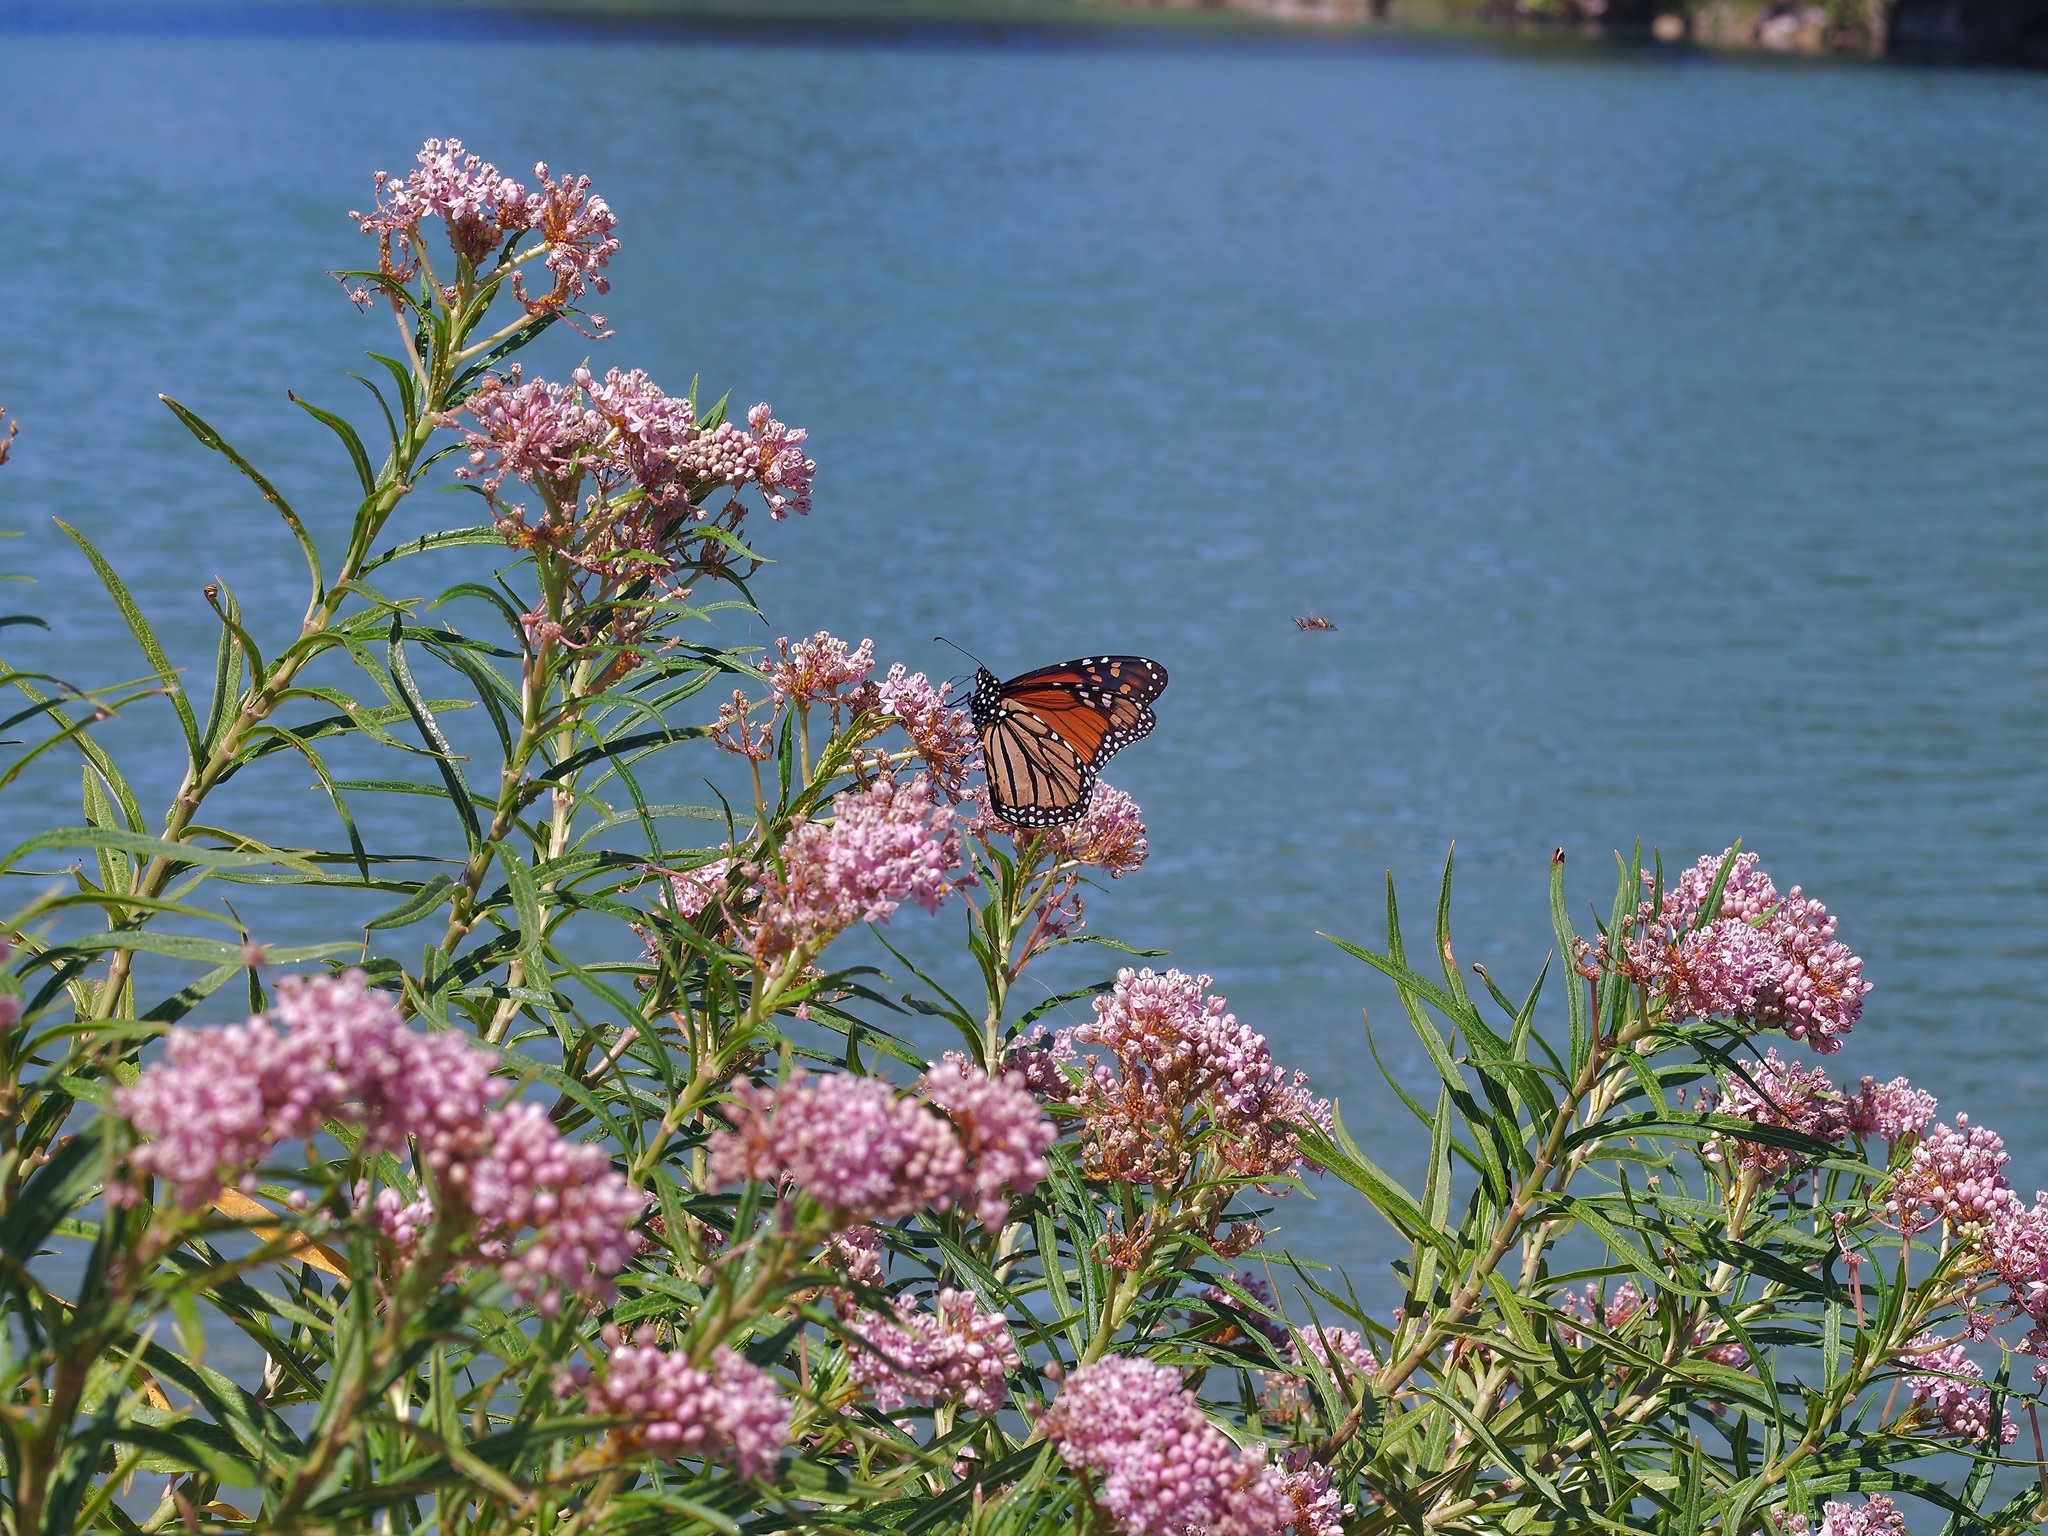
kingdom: Animalia
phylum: Arthropoda
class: Insecta
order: Lepidoptera
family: Nymphalidae
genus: Danaus
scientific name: Danaus plexippus
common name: Monarch
